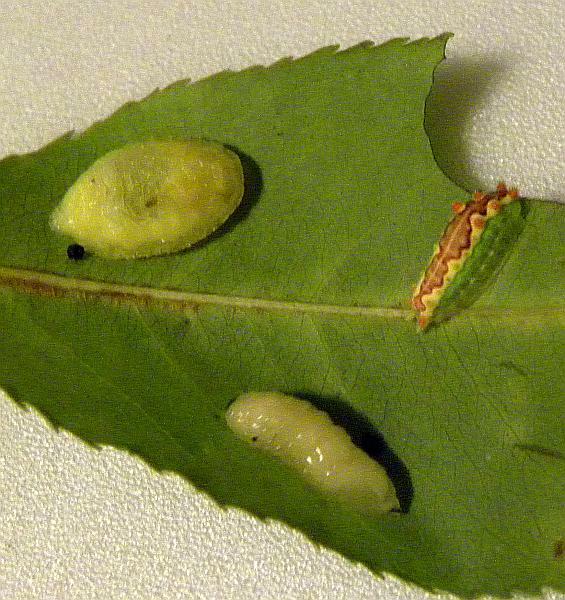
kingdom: Animalia
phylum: Arthropoda
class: Insecta
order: Lepidoptera
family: Limacodidae
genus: Adoneta
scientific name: Adoneta spinuloides
